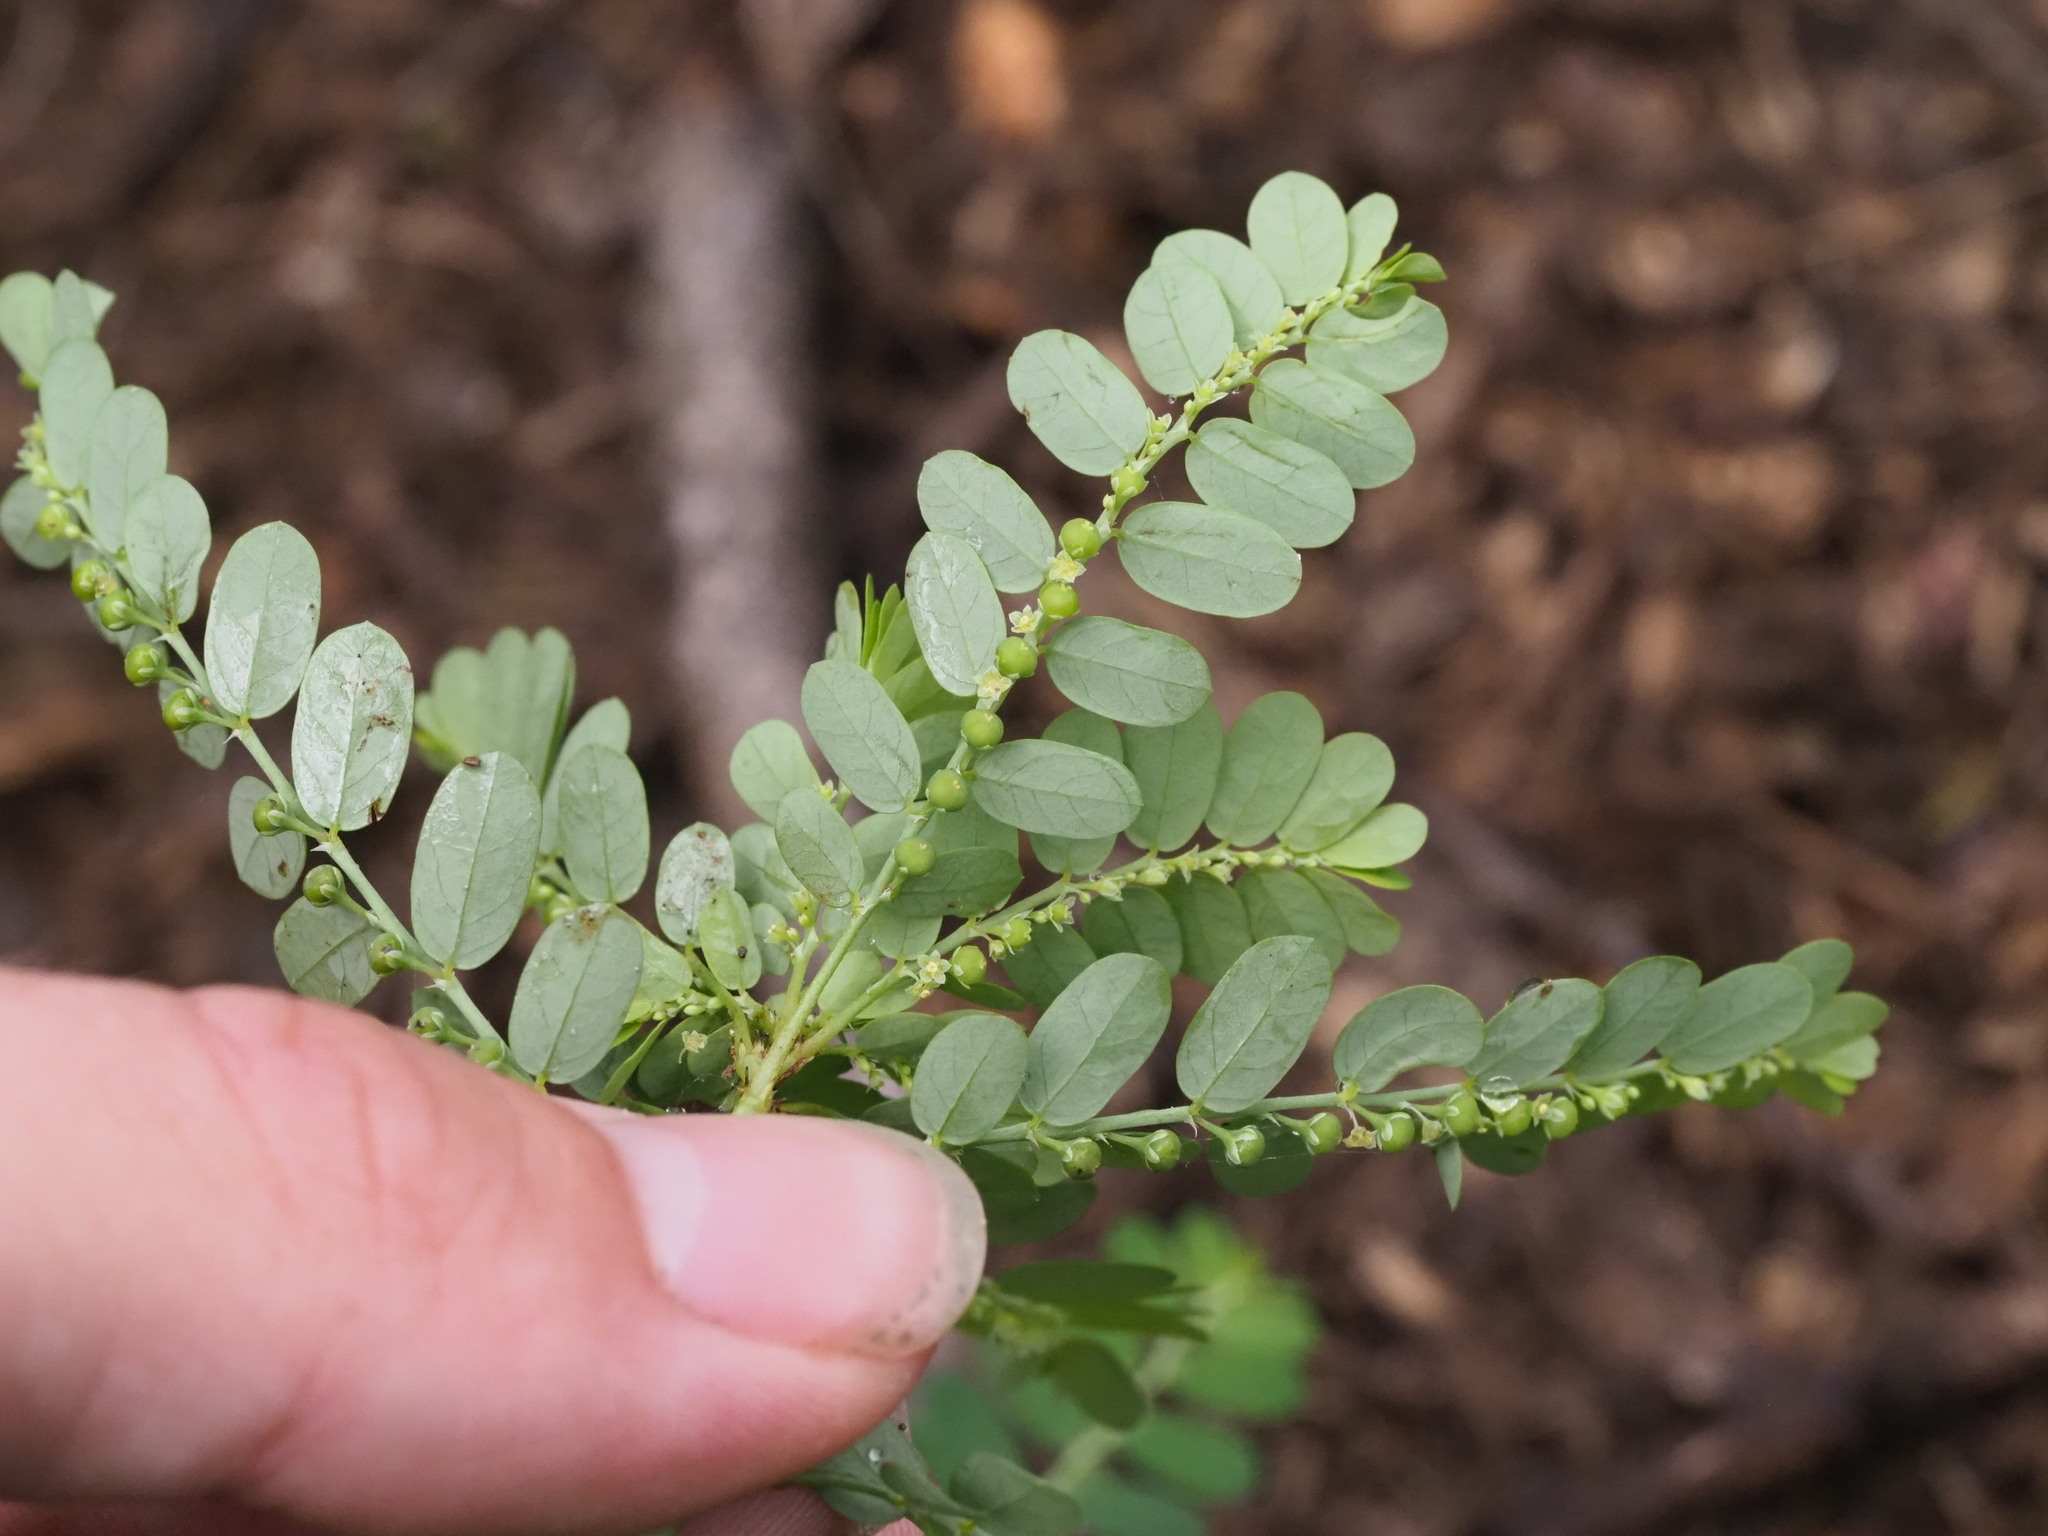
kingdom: Plantae
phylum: Tracheophyta
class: Magnoliopsida
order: Malpighiales
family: Phyllanthaceae
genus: Phyllanthus
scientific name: Phyllanthus amarus
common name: Carry me seed
